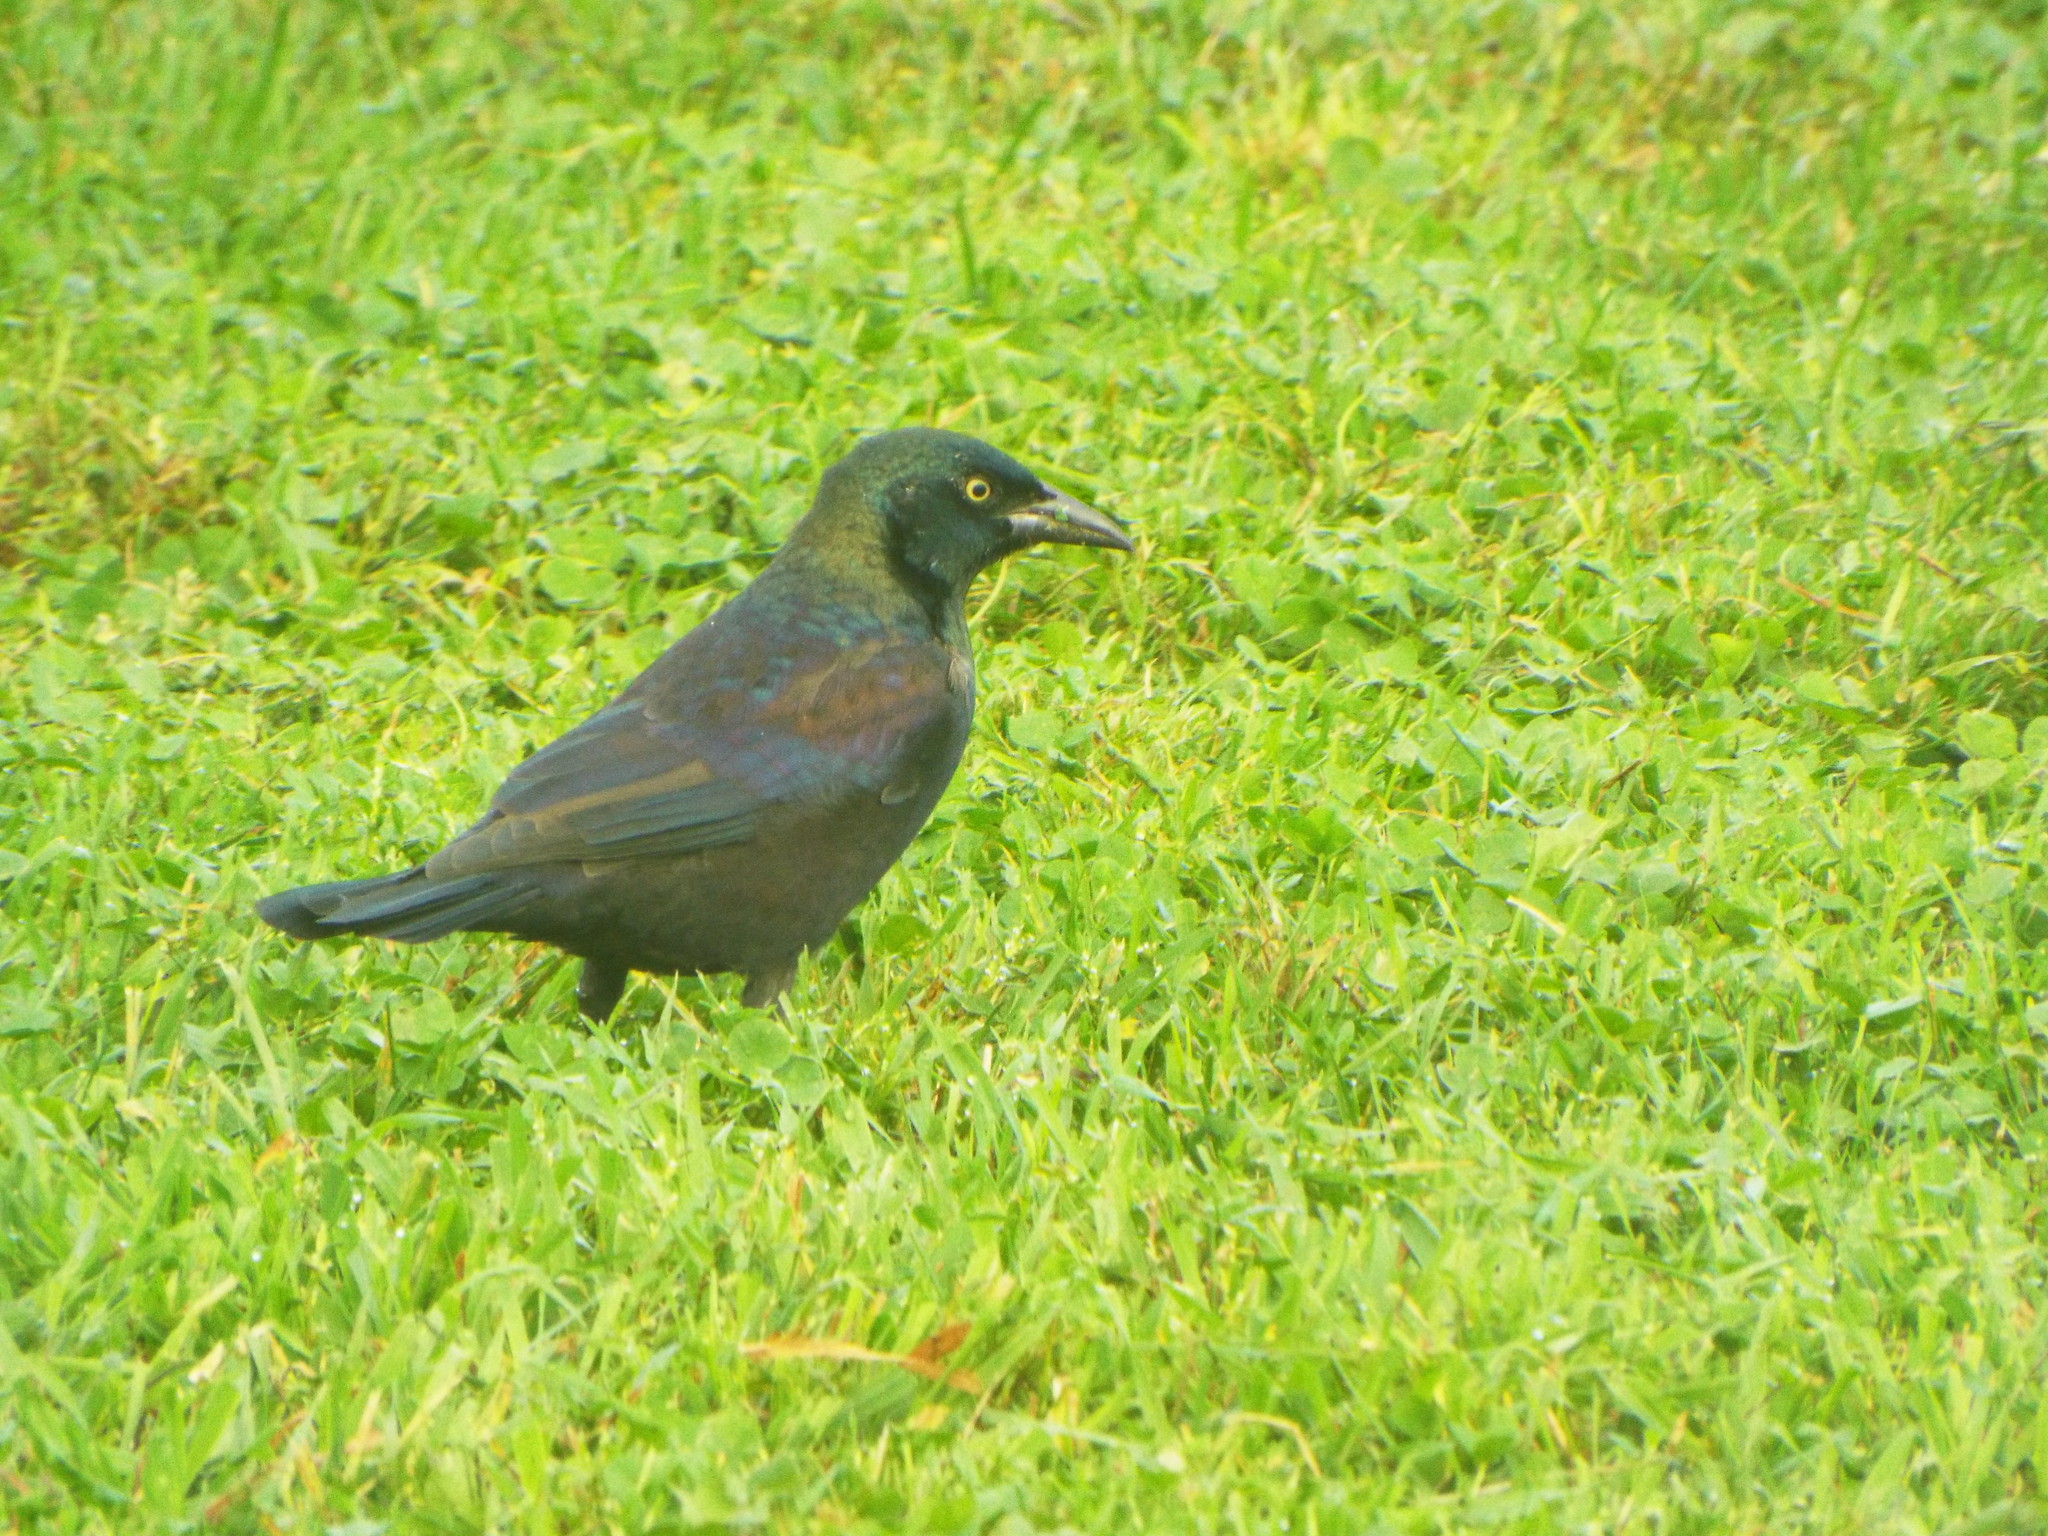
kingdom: Animalia
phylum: Chordata
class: Aves
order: Passeriformes
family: Icteridae
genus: Quiscalus
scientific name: Quiscalus quiscula
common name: Common grackle
